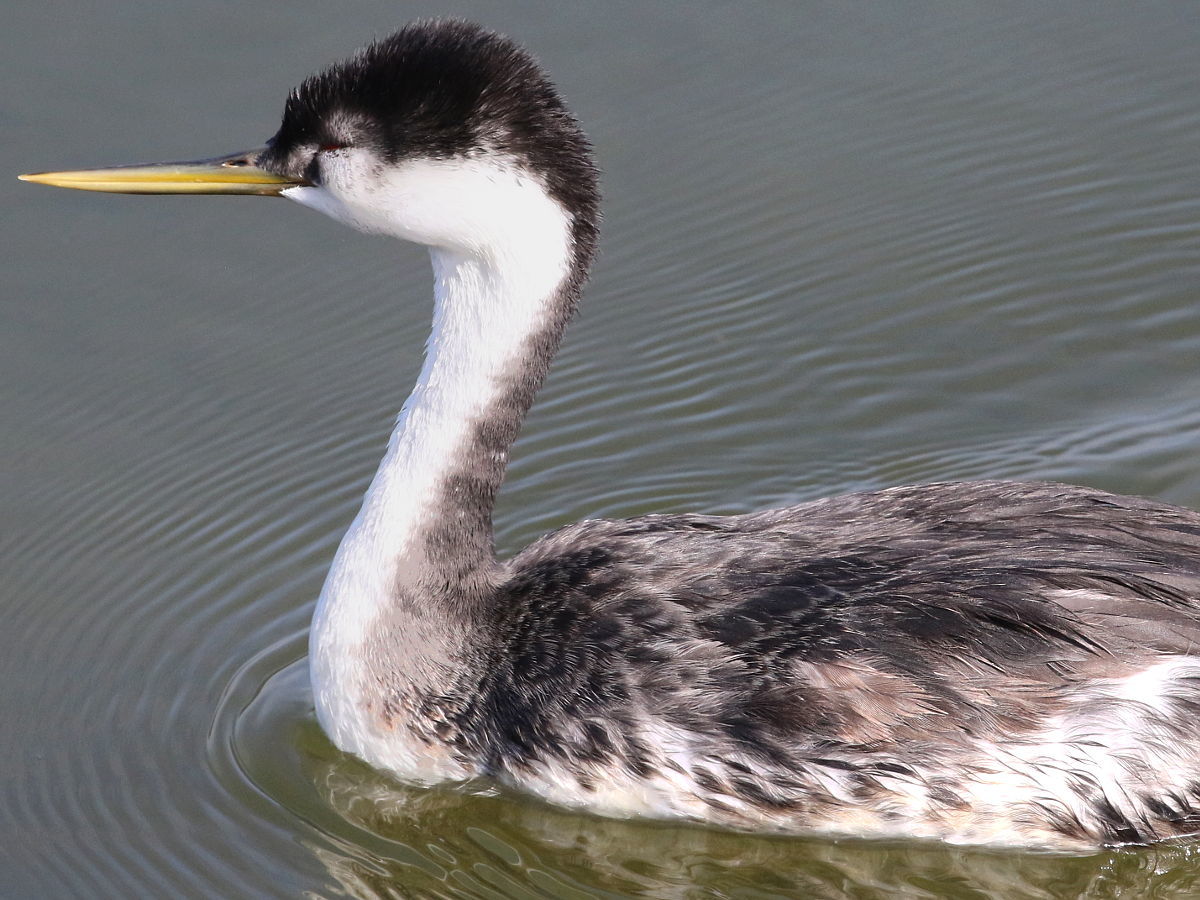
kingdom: Animalia
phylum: Chordata
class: Aves
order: Podicipediformes
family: Podicipedidae
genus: Aechmophorus
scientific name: Aechmophorus occidentalis
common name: Western grebe
